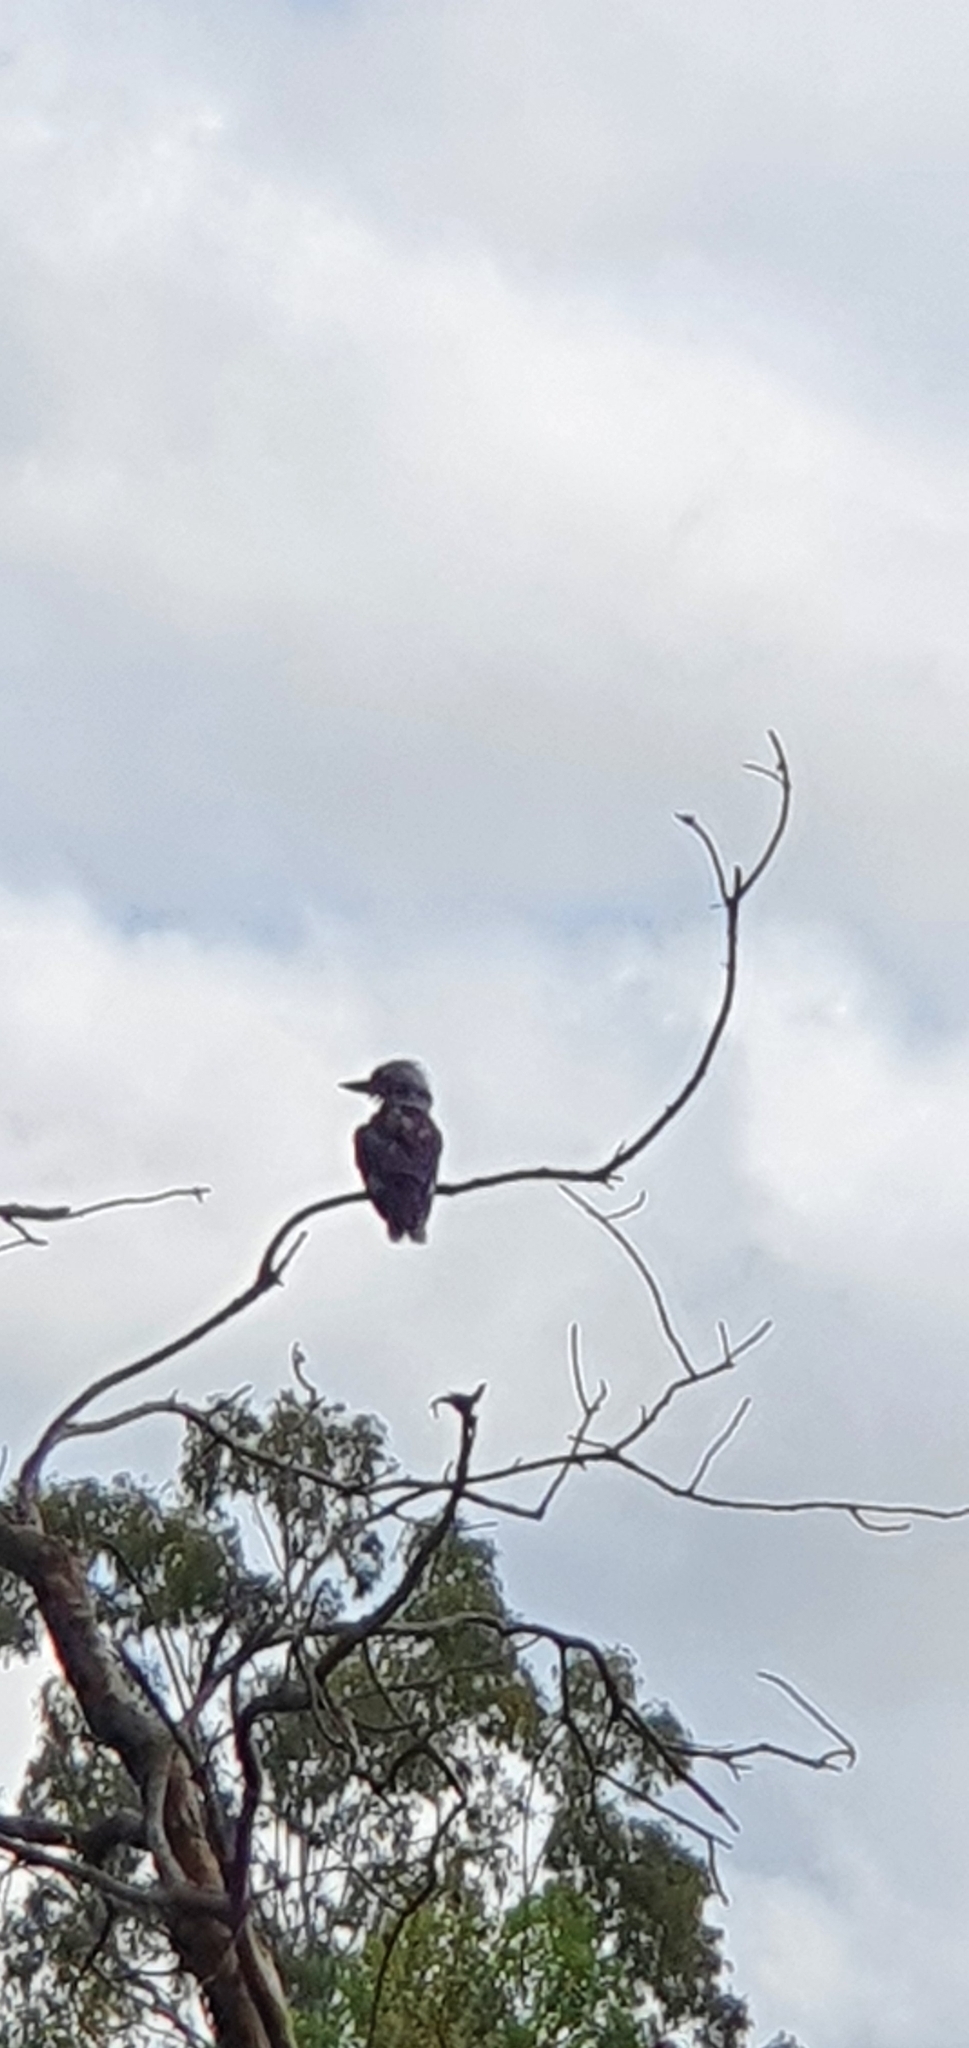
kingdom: Animalia
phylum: Chordata
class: Aves
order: Coraciiformes
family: Alcedinidae
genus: Dacelo
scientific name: Dacelo novaeguineae
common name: Laughing kookaburra
